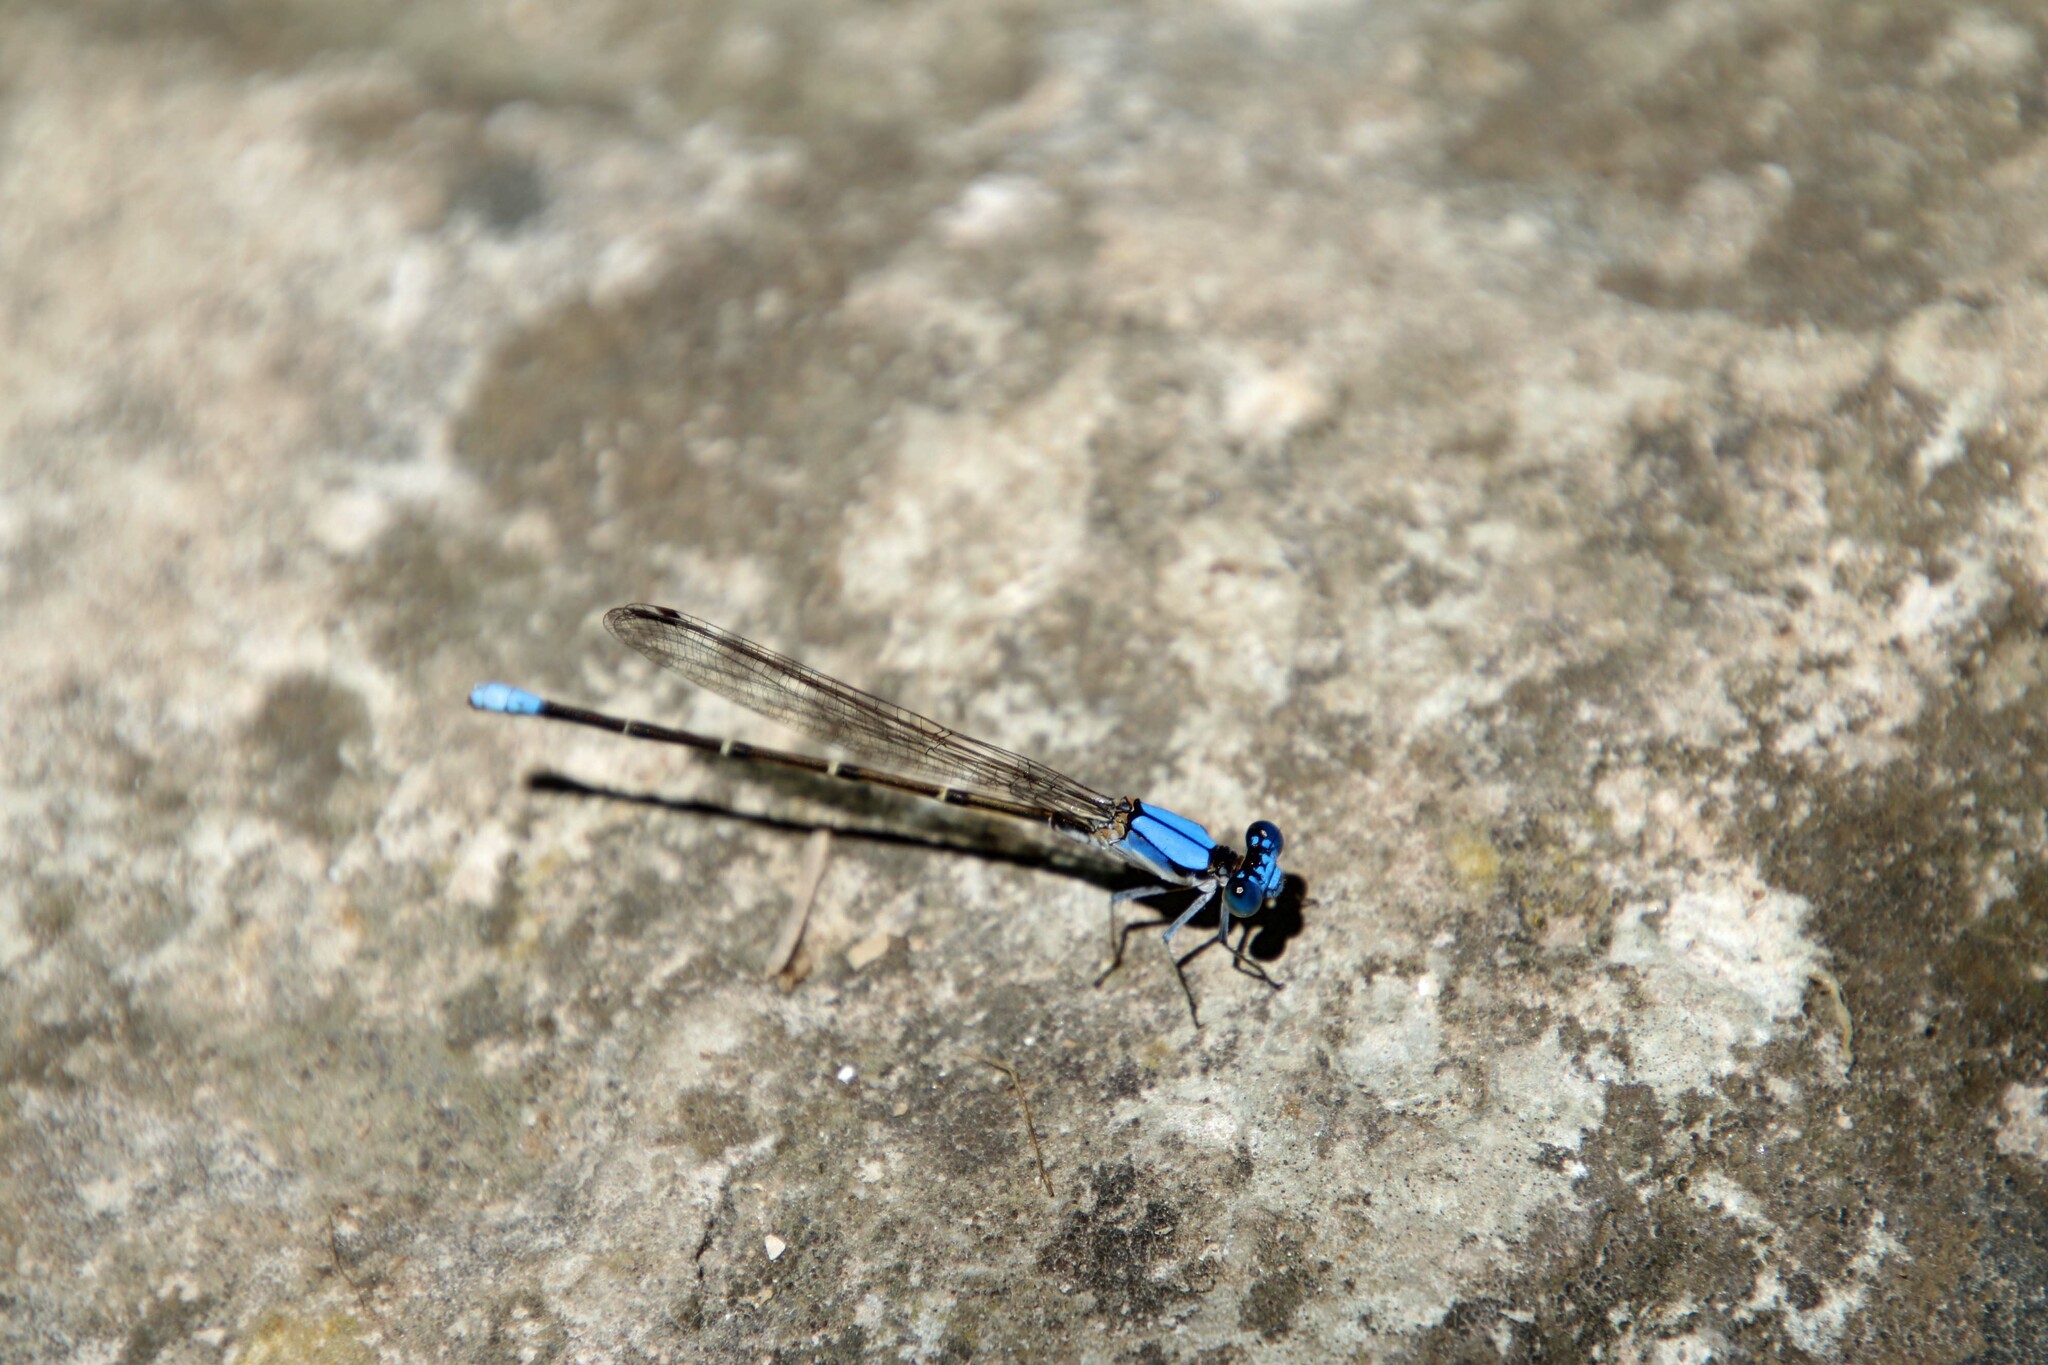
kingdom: Animalia
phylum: Arthropoda
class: Insecta
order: Odonata
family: Coenagrionidae
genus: Argia
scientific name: Argia apicalis
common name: Blue-fronted dancer
